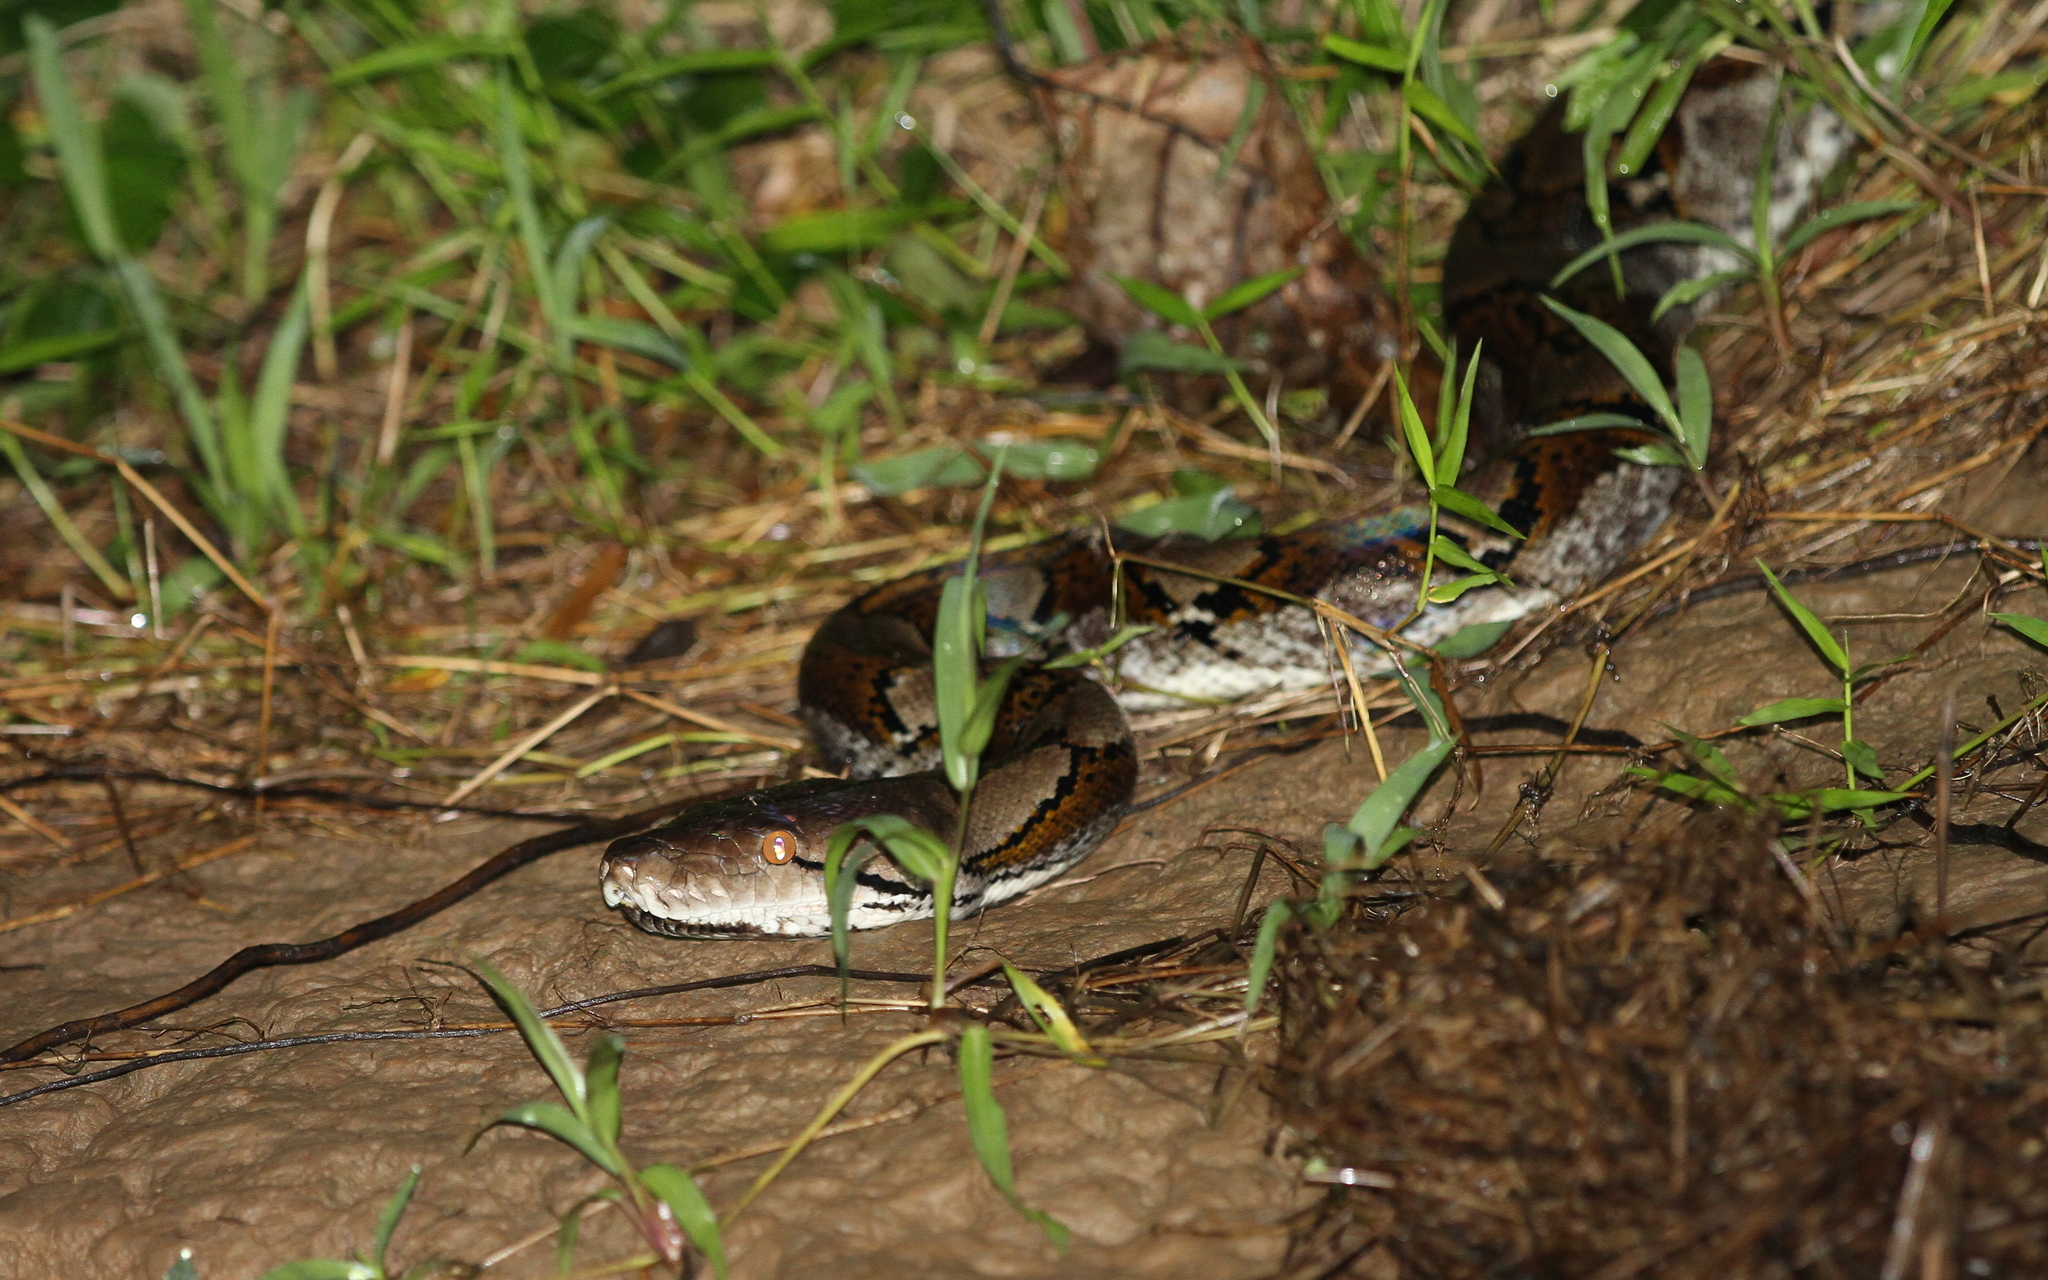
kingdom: Animalia
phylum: Chordata
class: Squamata
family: Pythonidae
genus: Malayopython
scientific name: Malayopython reticulatus
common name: Reticulated python
